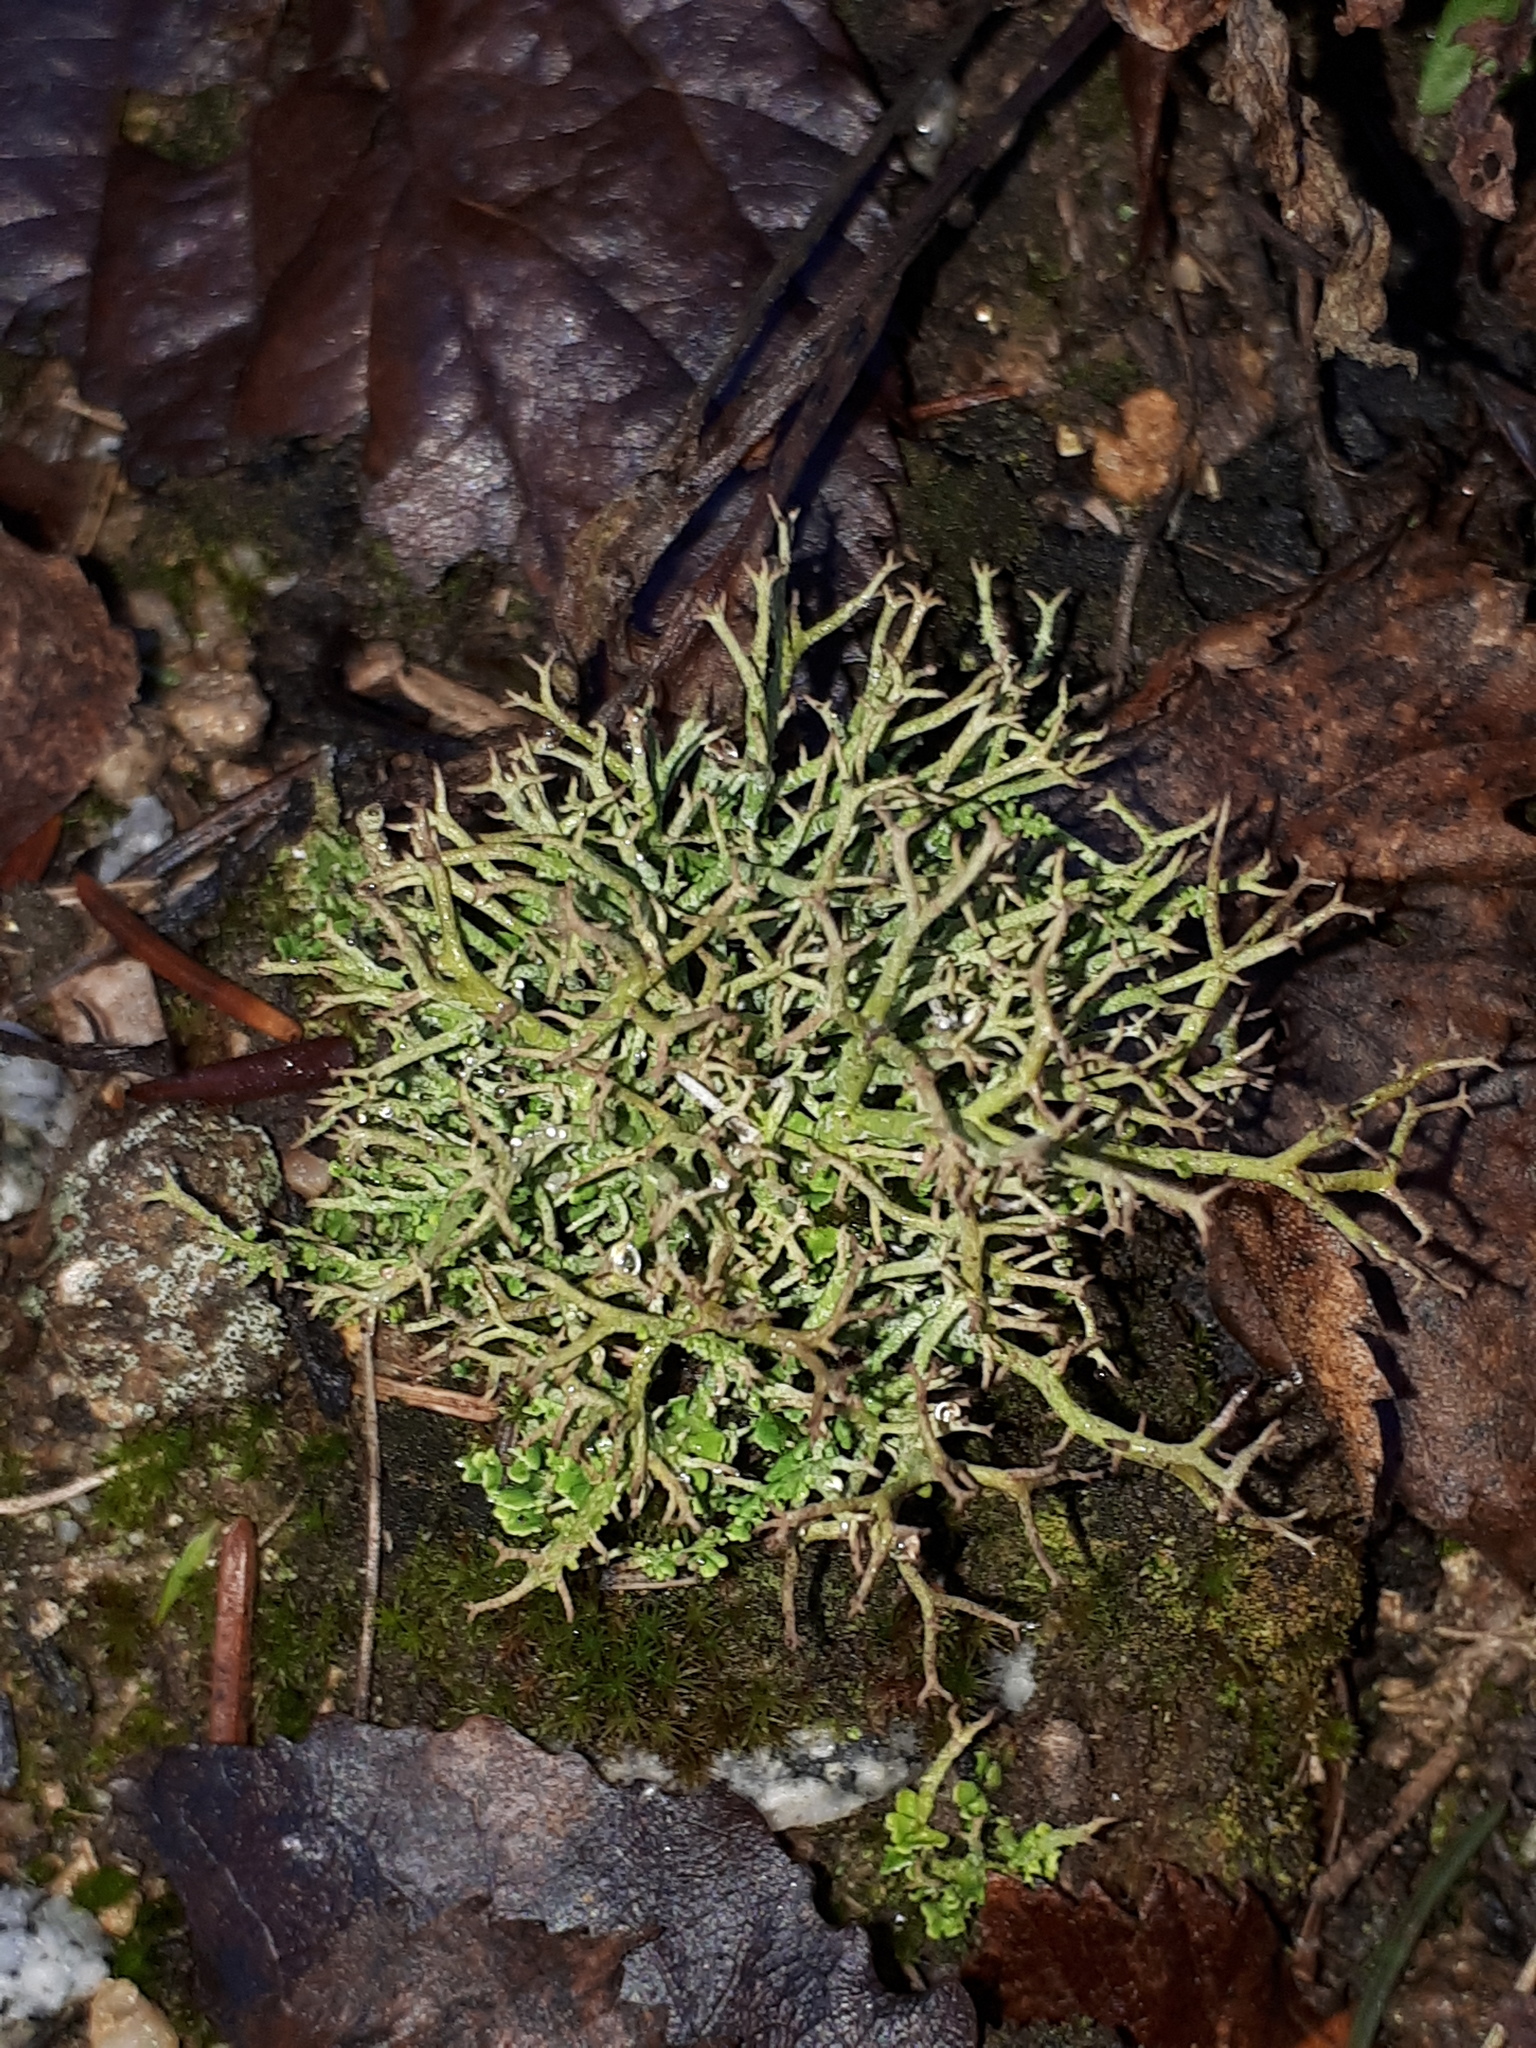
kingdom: Fungi
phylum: Ascomycota
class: Lecanoromycetes
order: Lecanorales
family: Cladoniaceae
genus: Cladonia
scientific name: Cladonia furcata
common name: Many-forked cladonia
